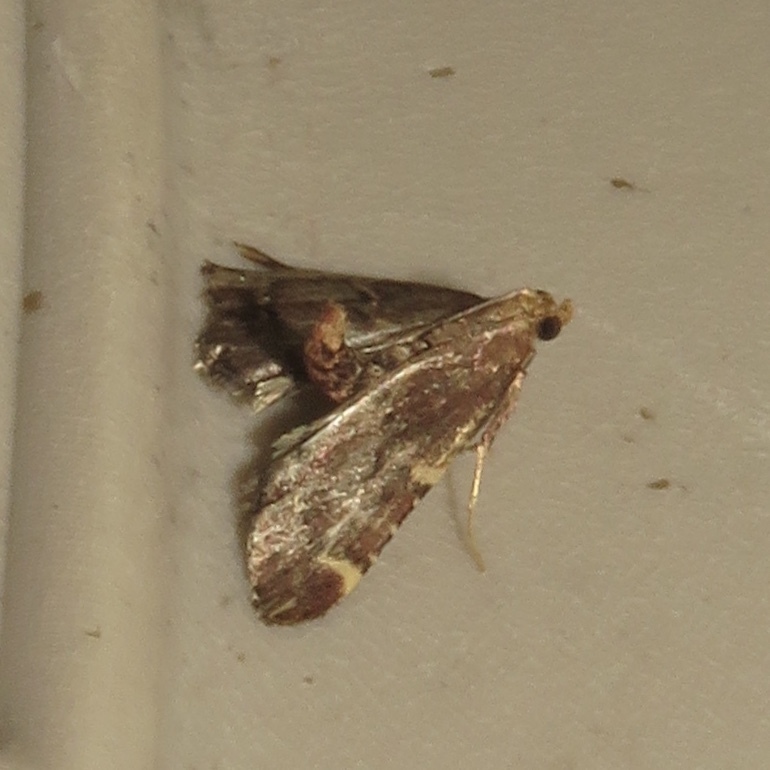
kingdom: Animalia
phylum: Arthropoda
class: Insecta
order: Lepidoptera
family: Pyralidae
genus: Hypsopygia
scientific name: Hypsopygia intermedialis
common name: Red-shawled moth
